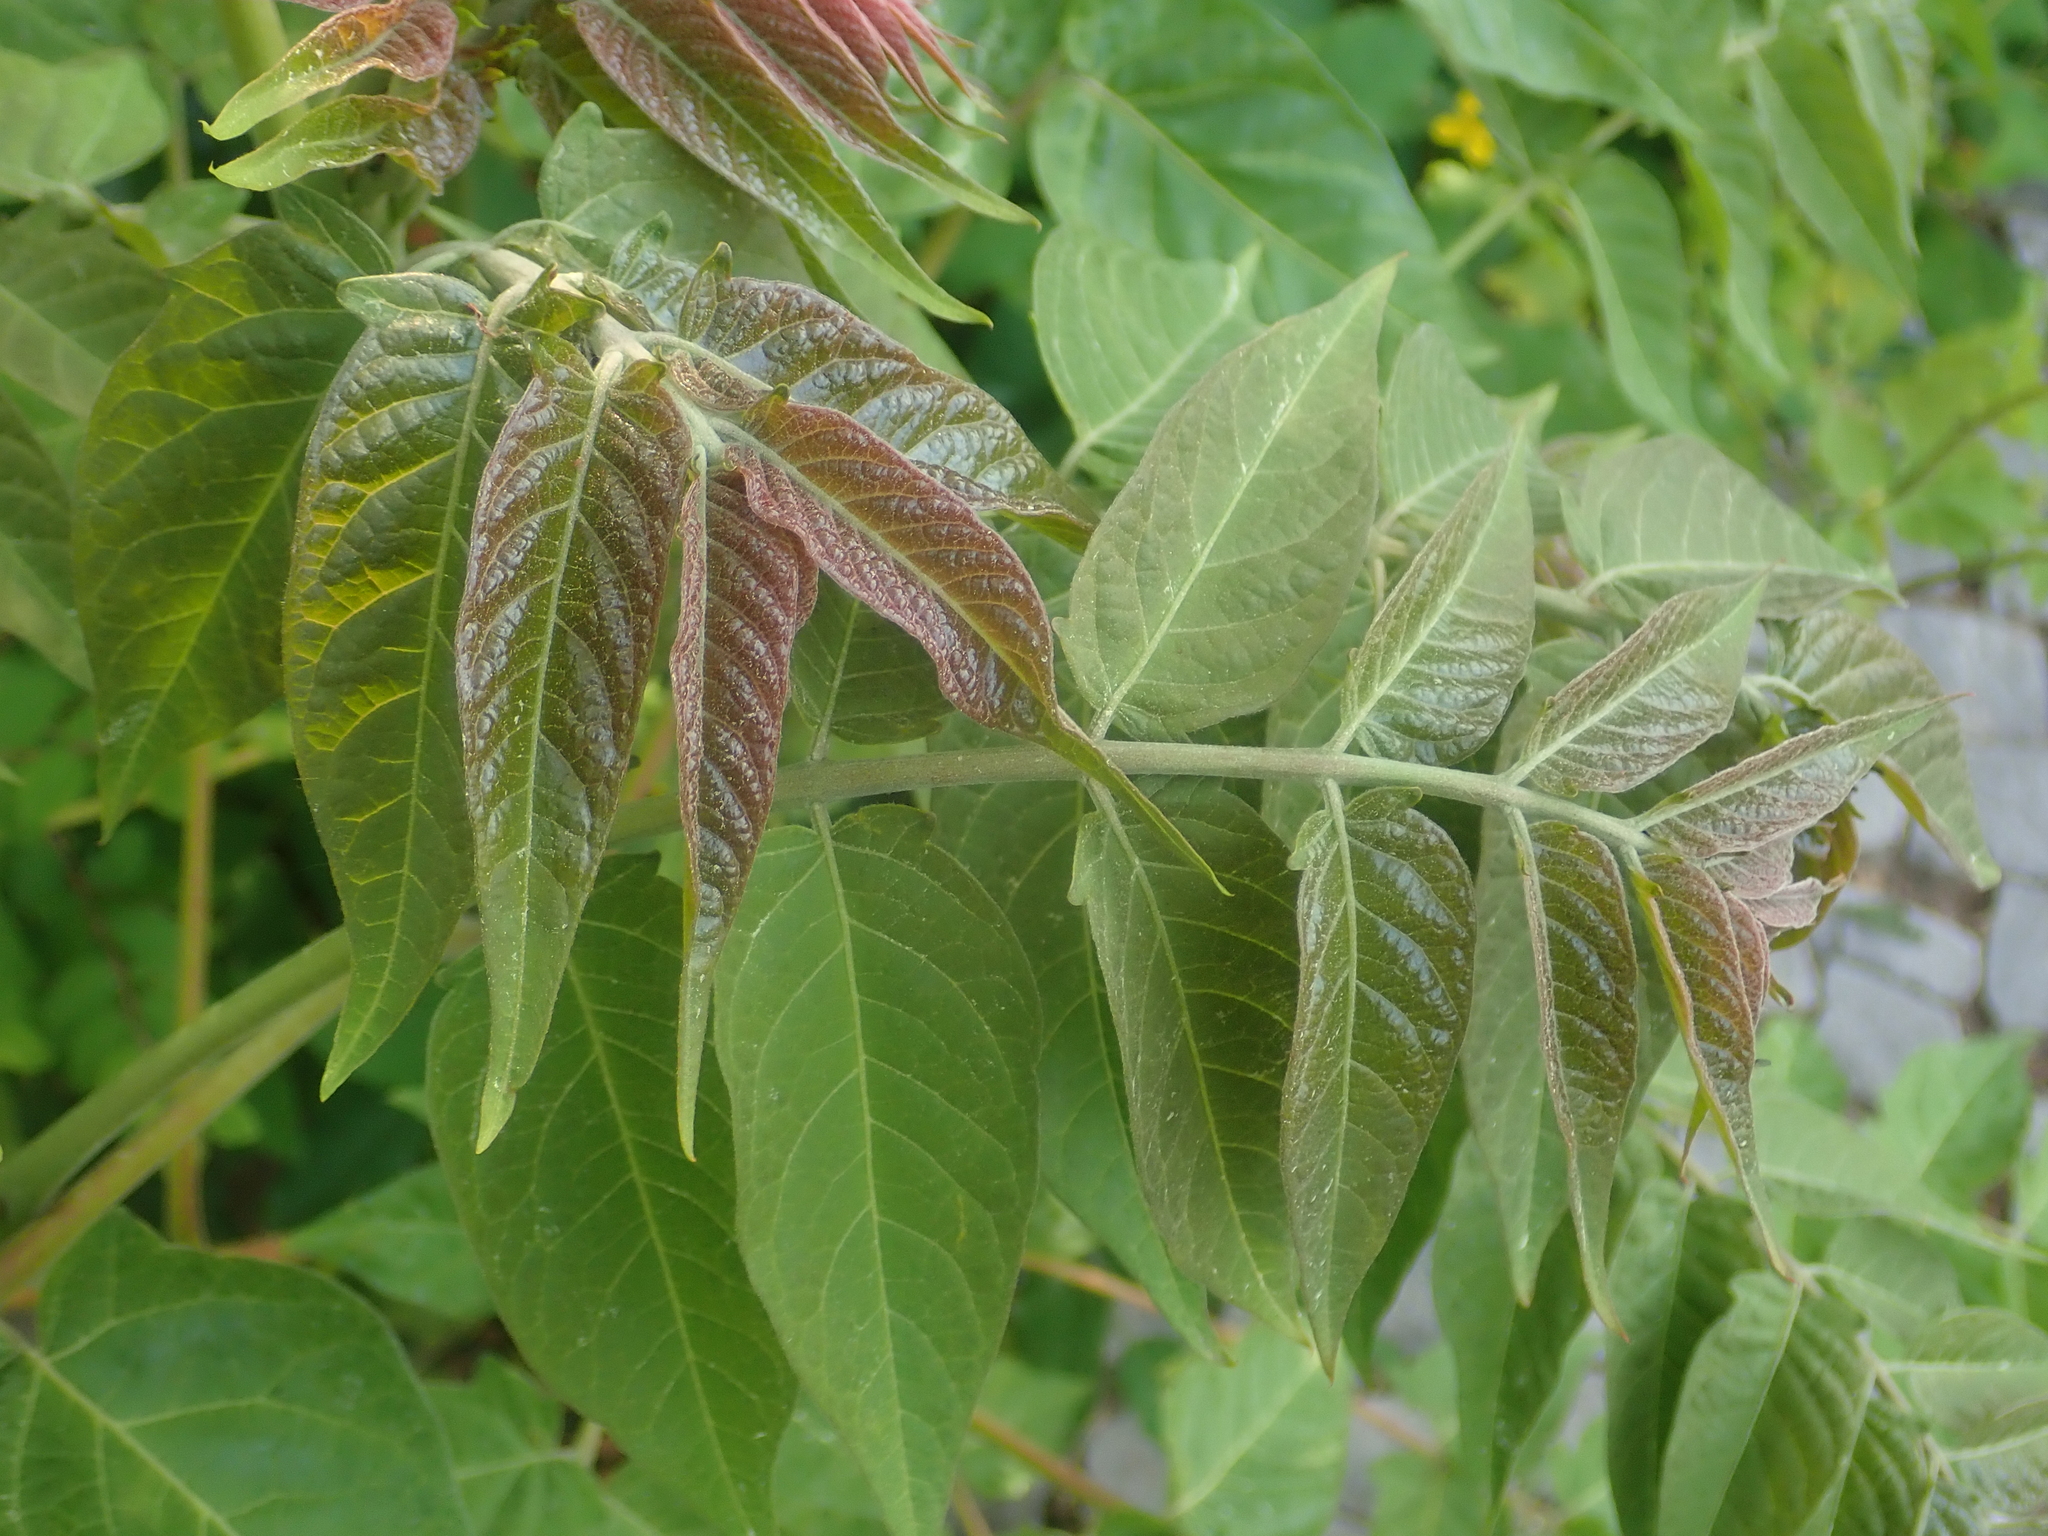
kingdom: Plantae
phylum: Tracheophyta
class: Magnoliopsida
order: Sapindales
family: Simaroubaceae
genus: Ailanthus
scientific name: Ailanthus altissima
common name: Tree-of-heaven
